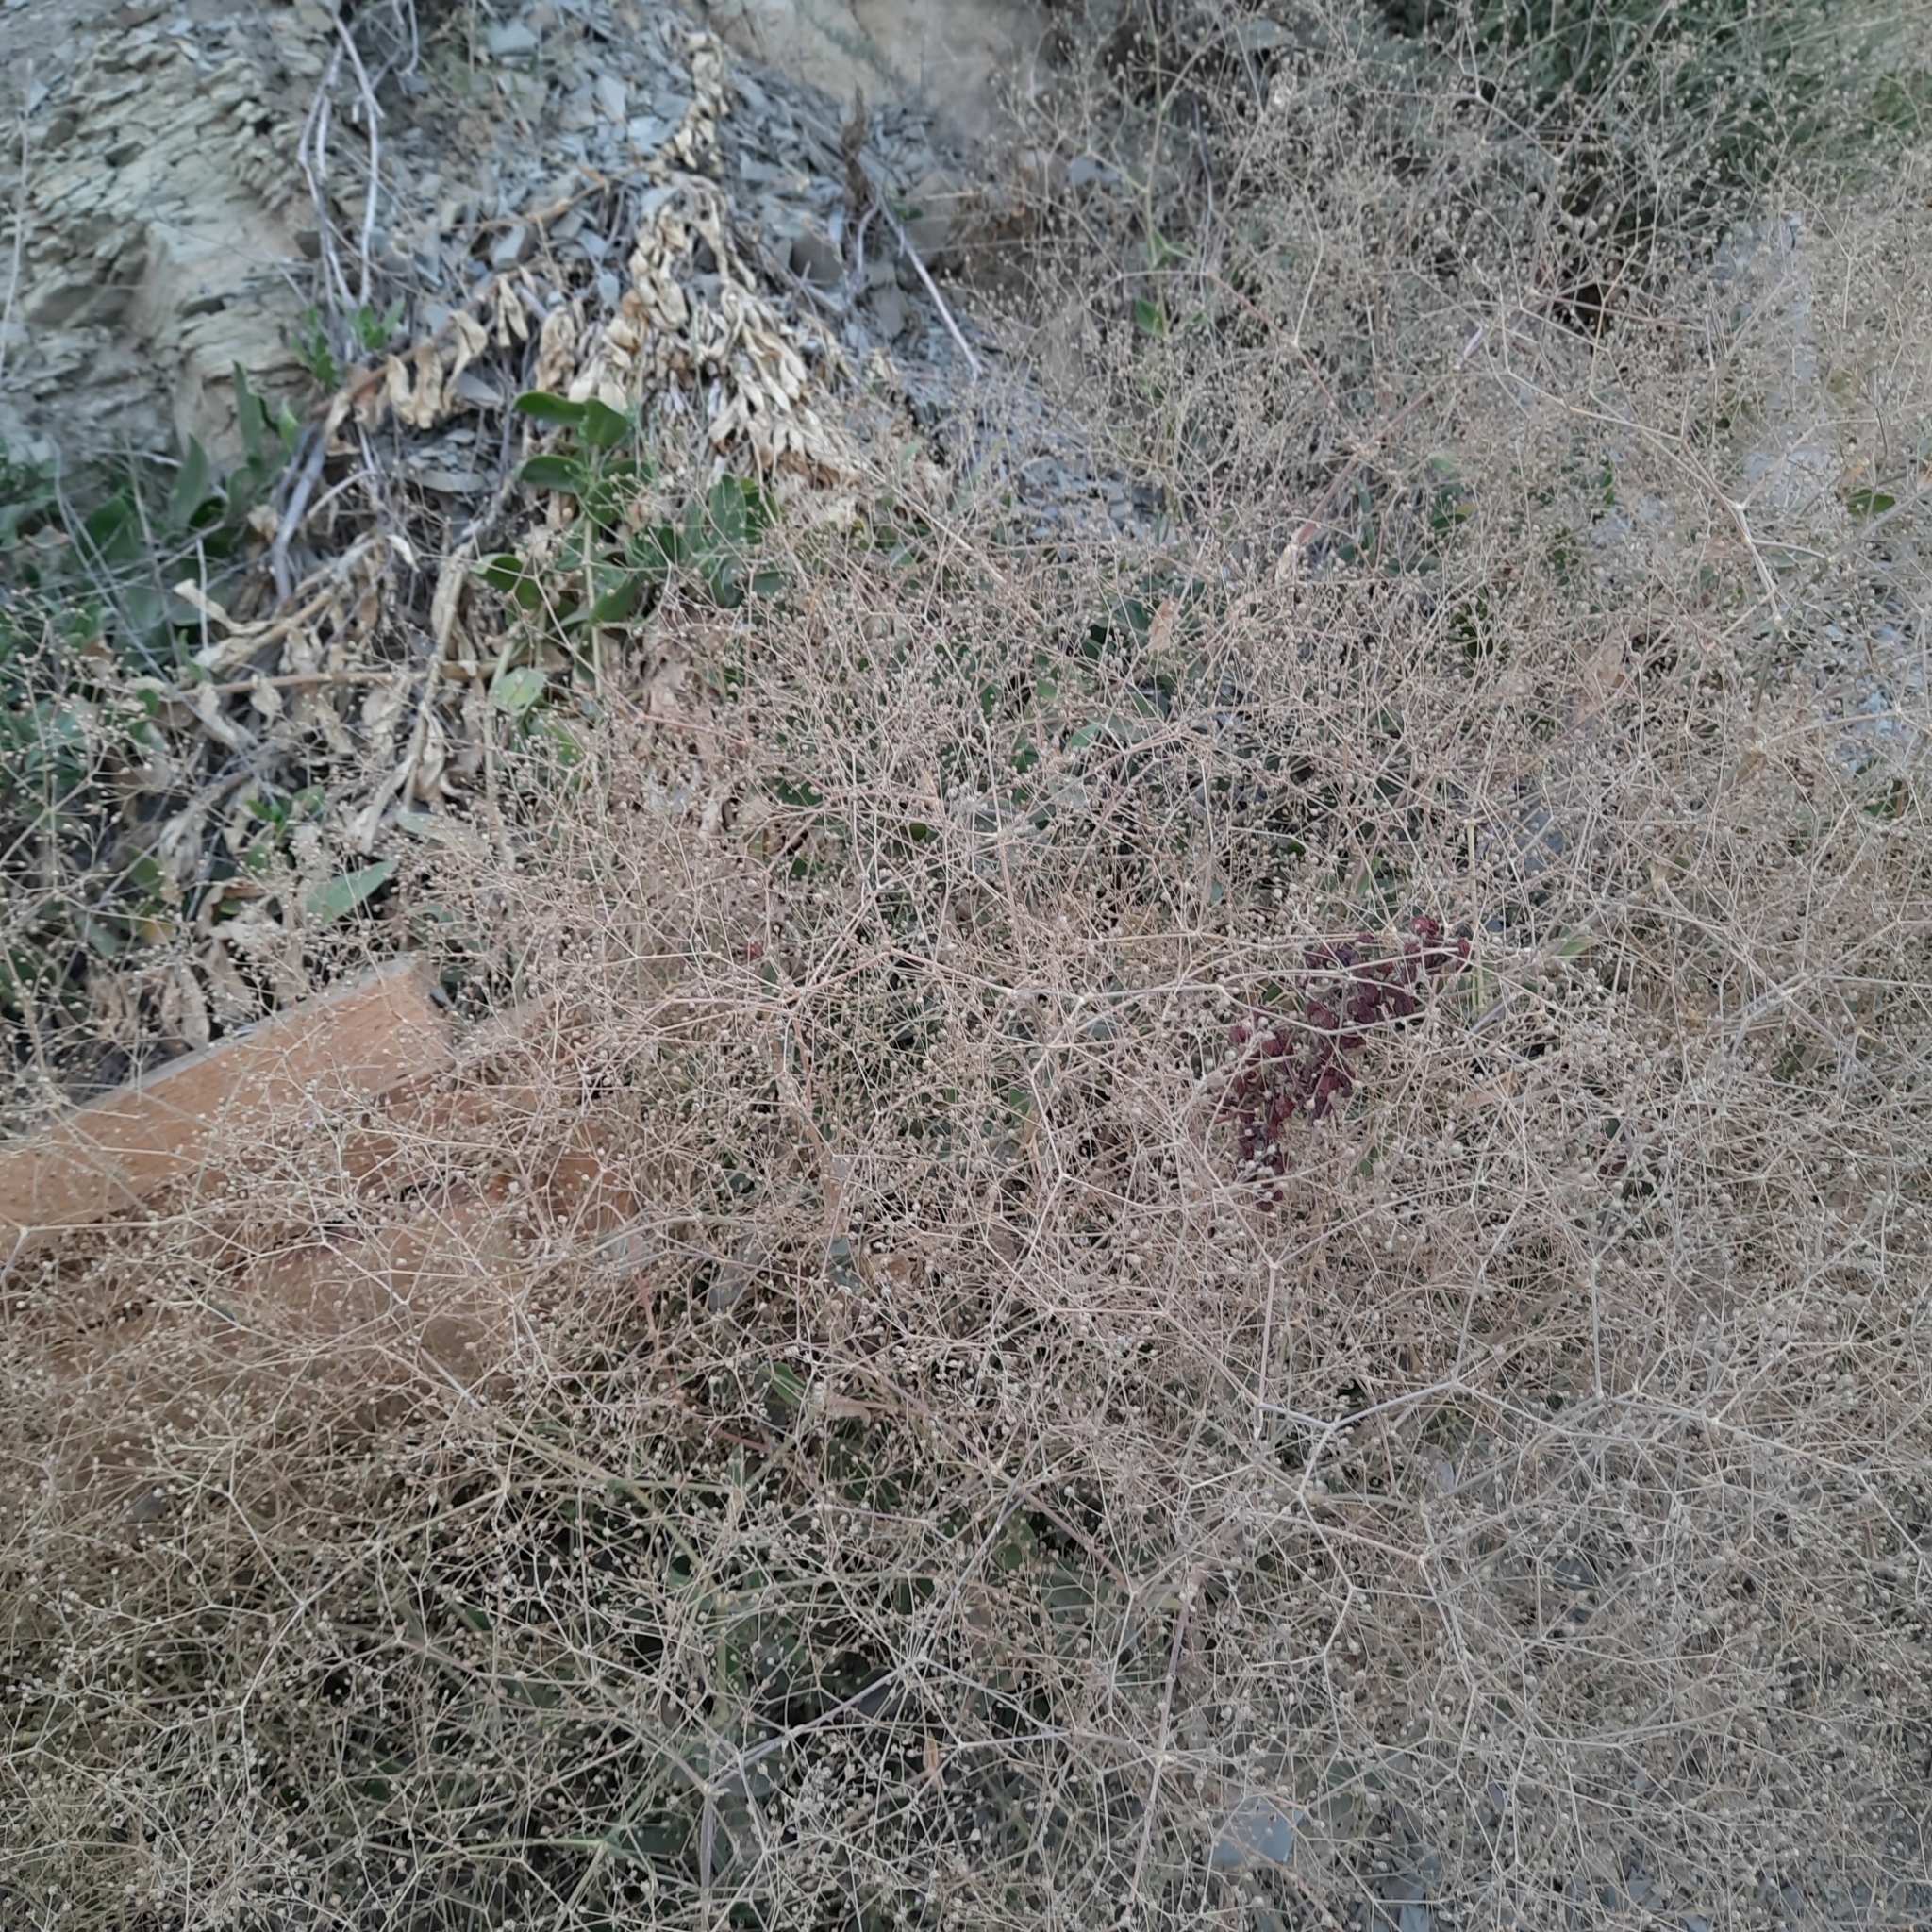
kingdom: Plantae
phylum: Tracheophyta
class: Magnoliopsida
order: Caryophyllales
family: Caryophyllaceae
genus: Gypsophila
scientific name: Gypsophila perfoliata
